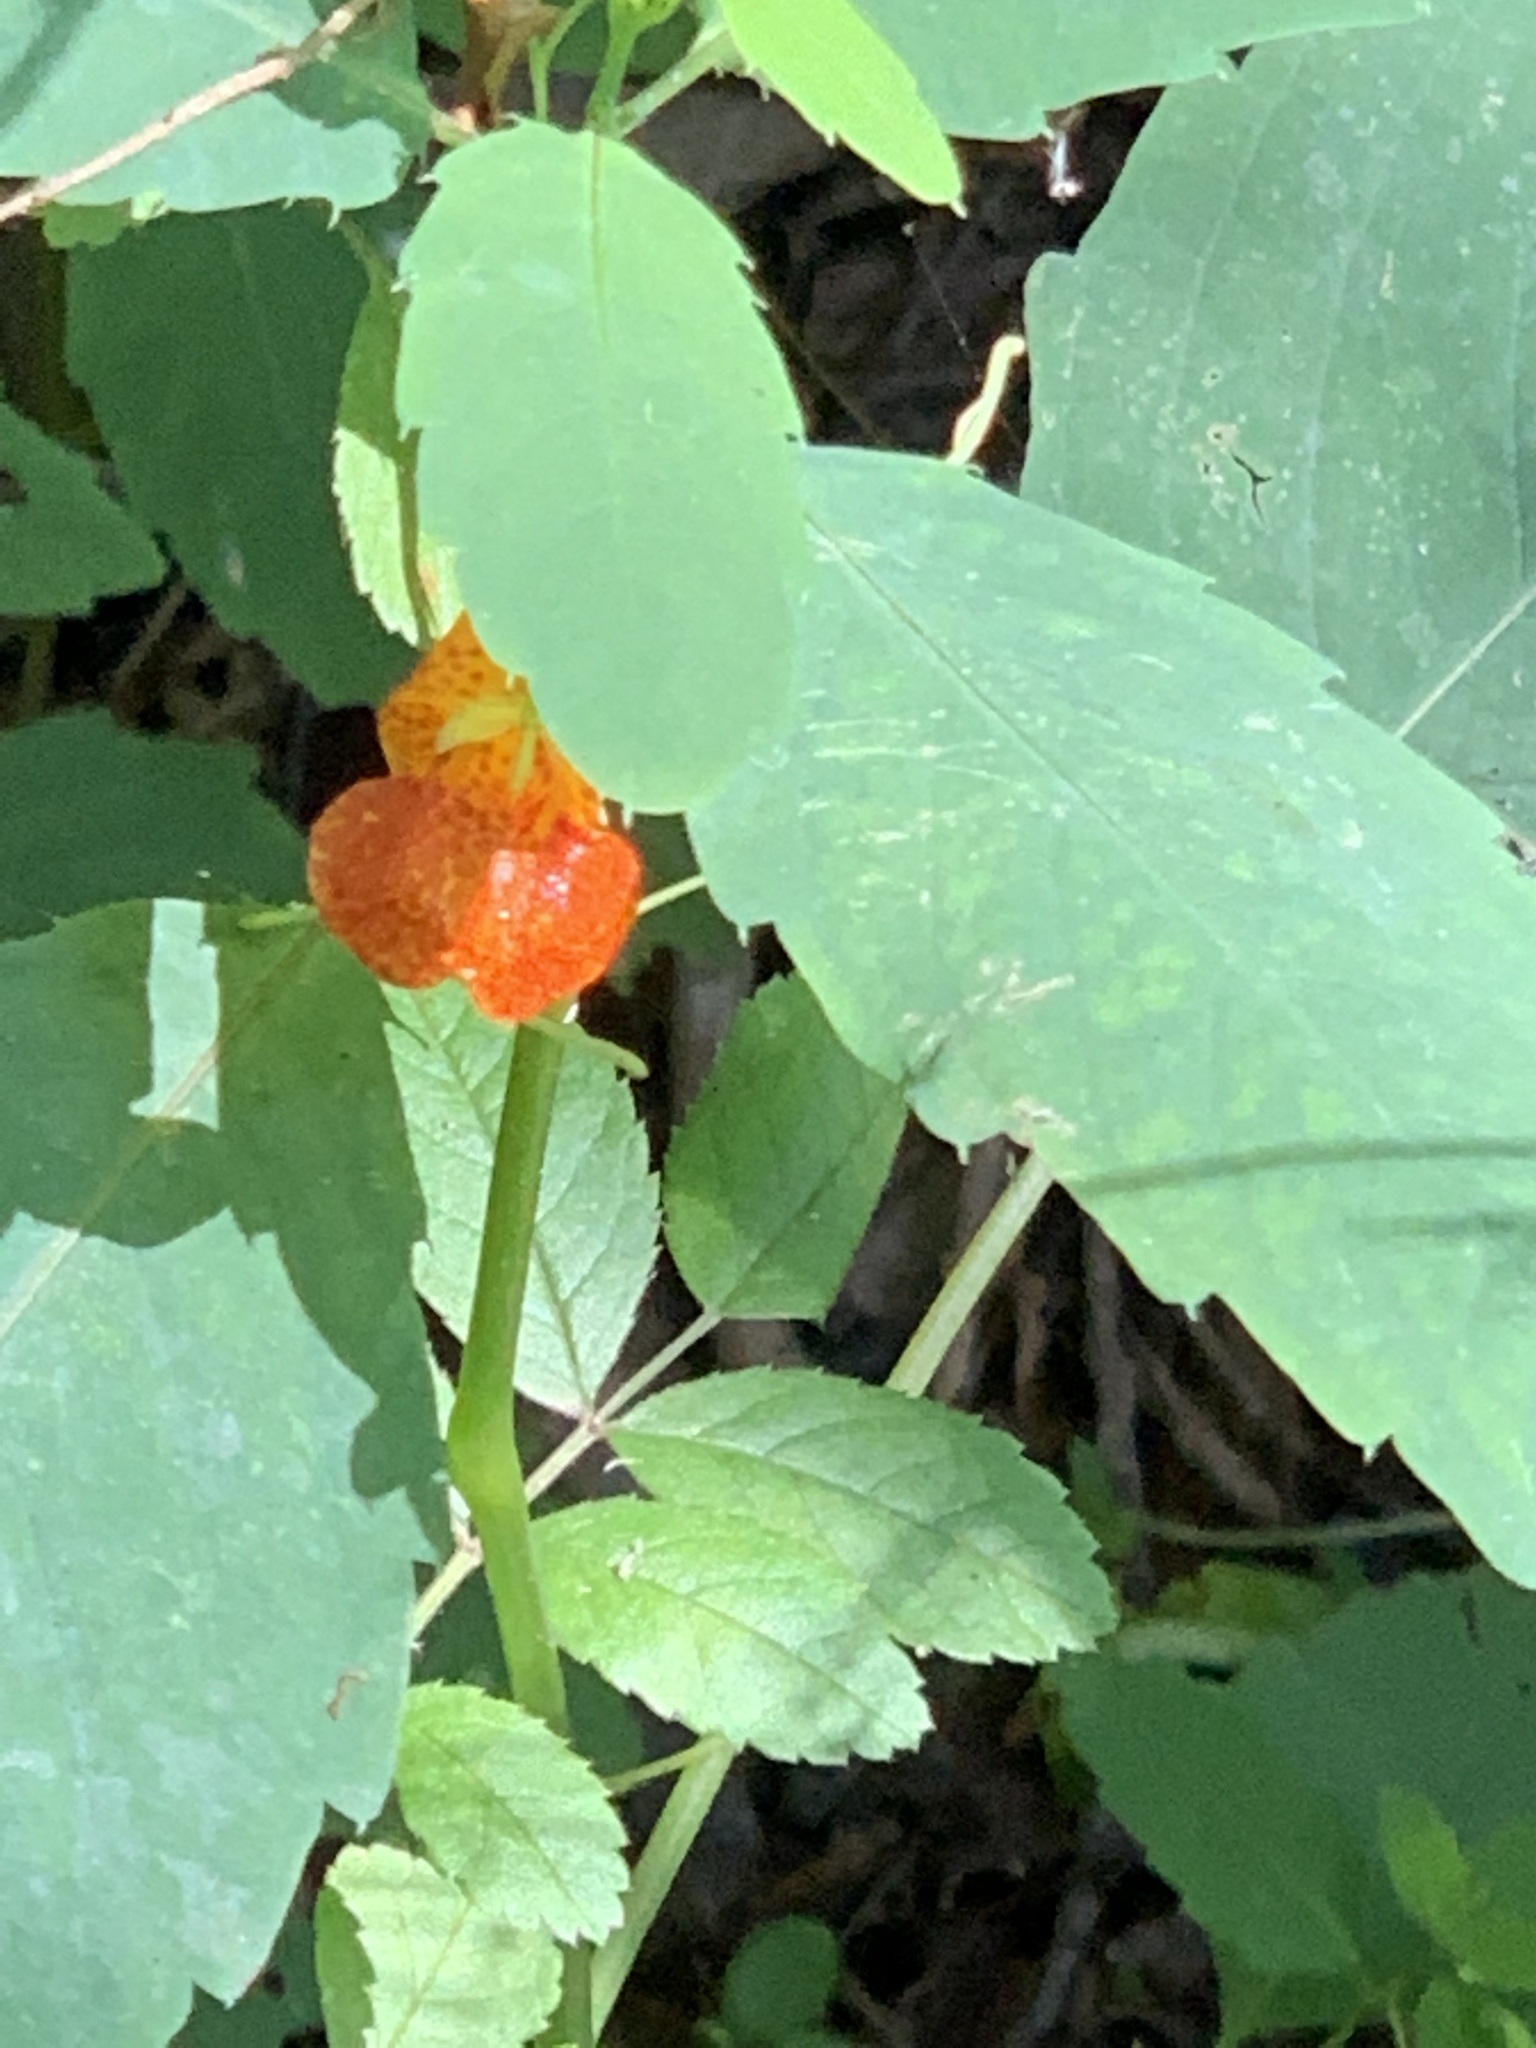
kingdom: Plantae
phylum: Tracheophyta
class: Magnoliopsida
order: Ericales
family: Balsaminaceae
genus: Impatiens
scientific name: Impatiens capensis
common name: Orange balsam
